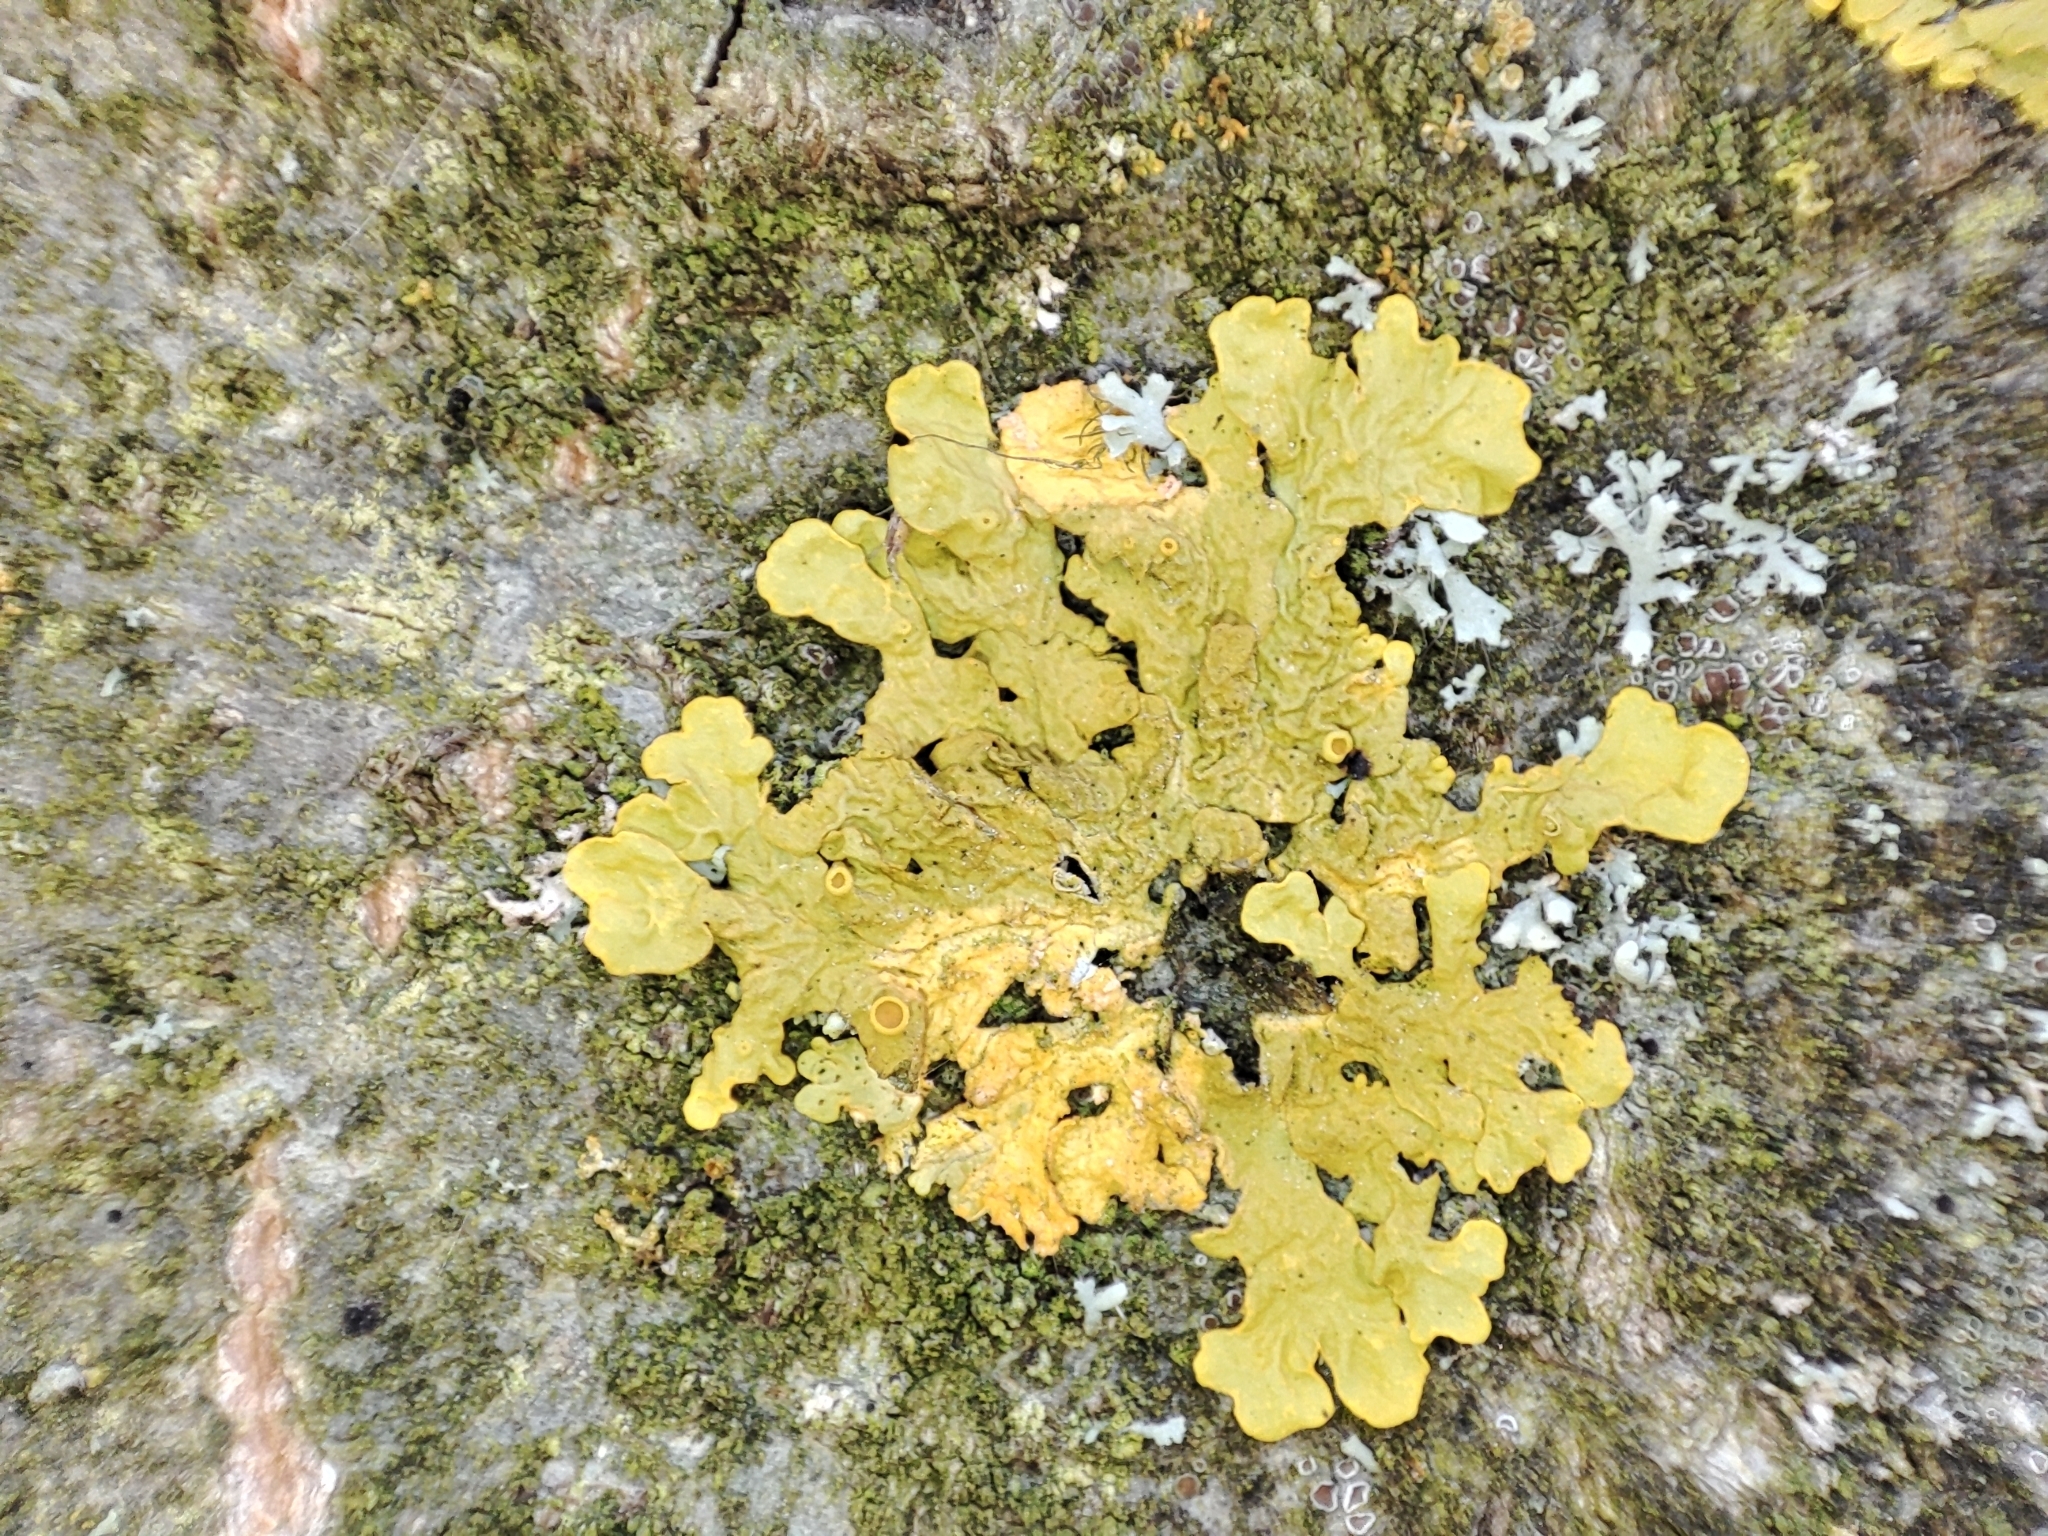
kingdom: Fungi
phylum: Ascomycota
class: Lecanoromycetes
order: Teloschistales
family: Teloschistaceae
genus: Xanthoria
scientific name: Xanthoria parietina
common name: Common orange lichen
